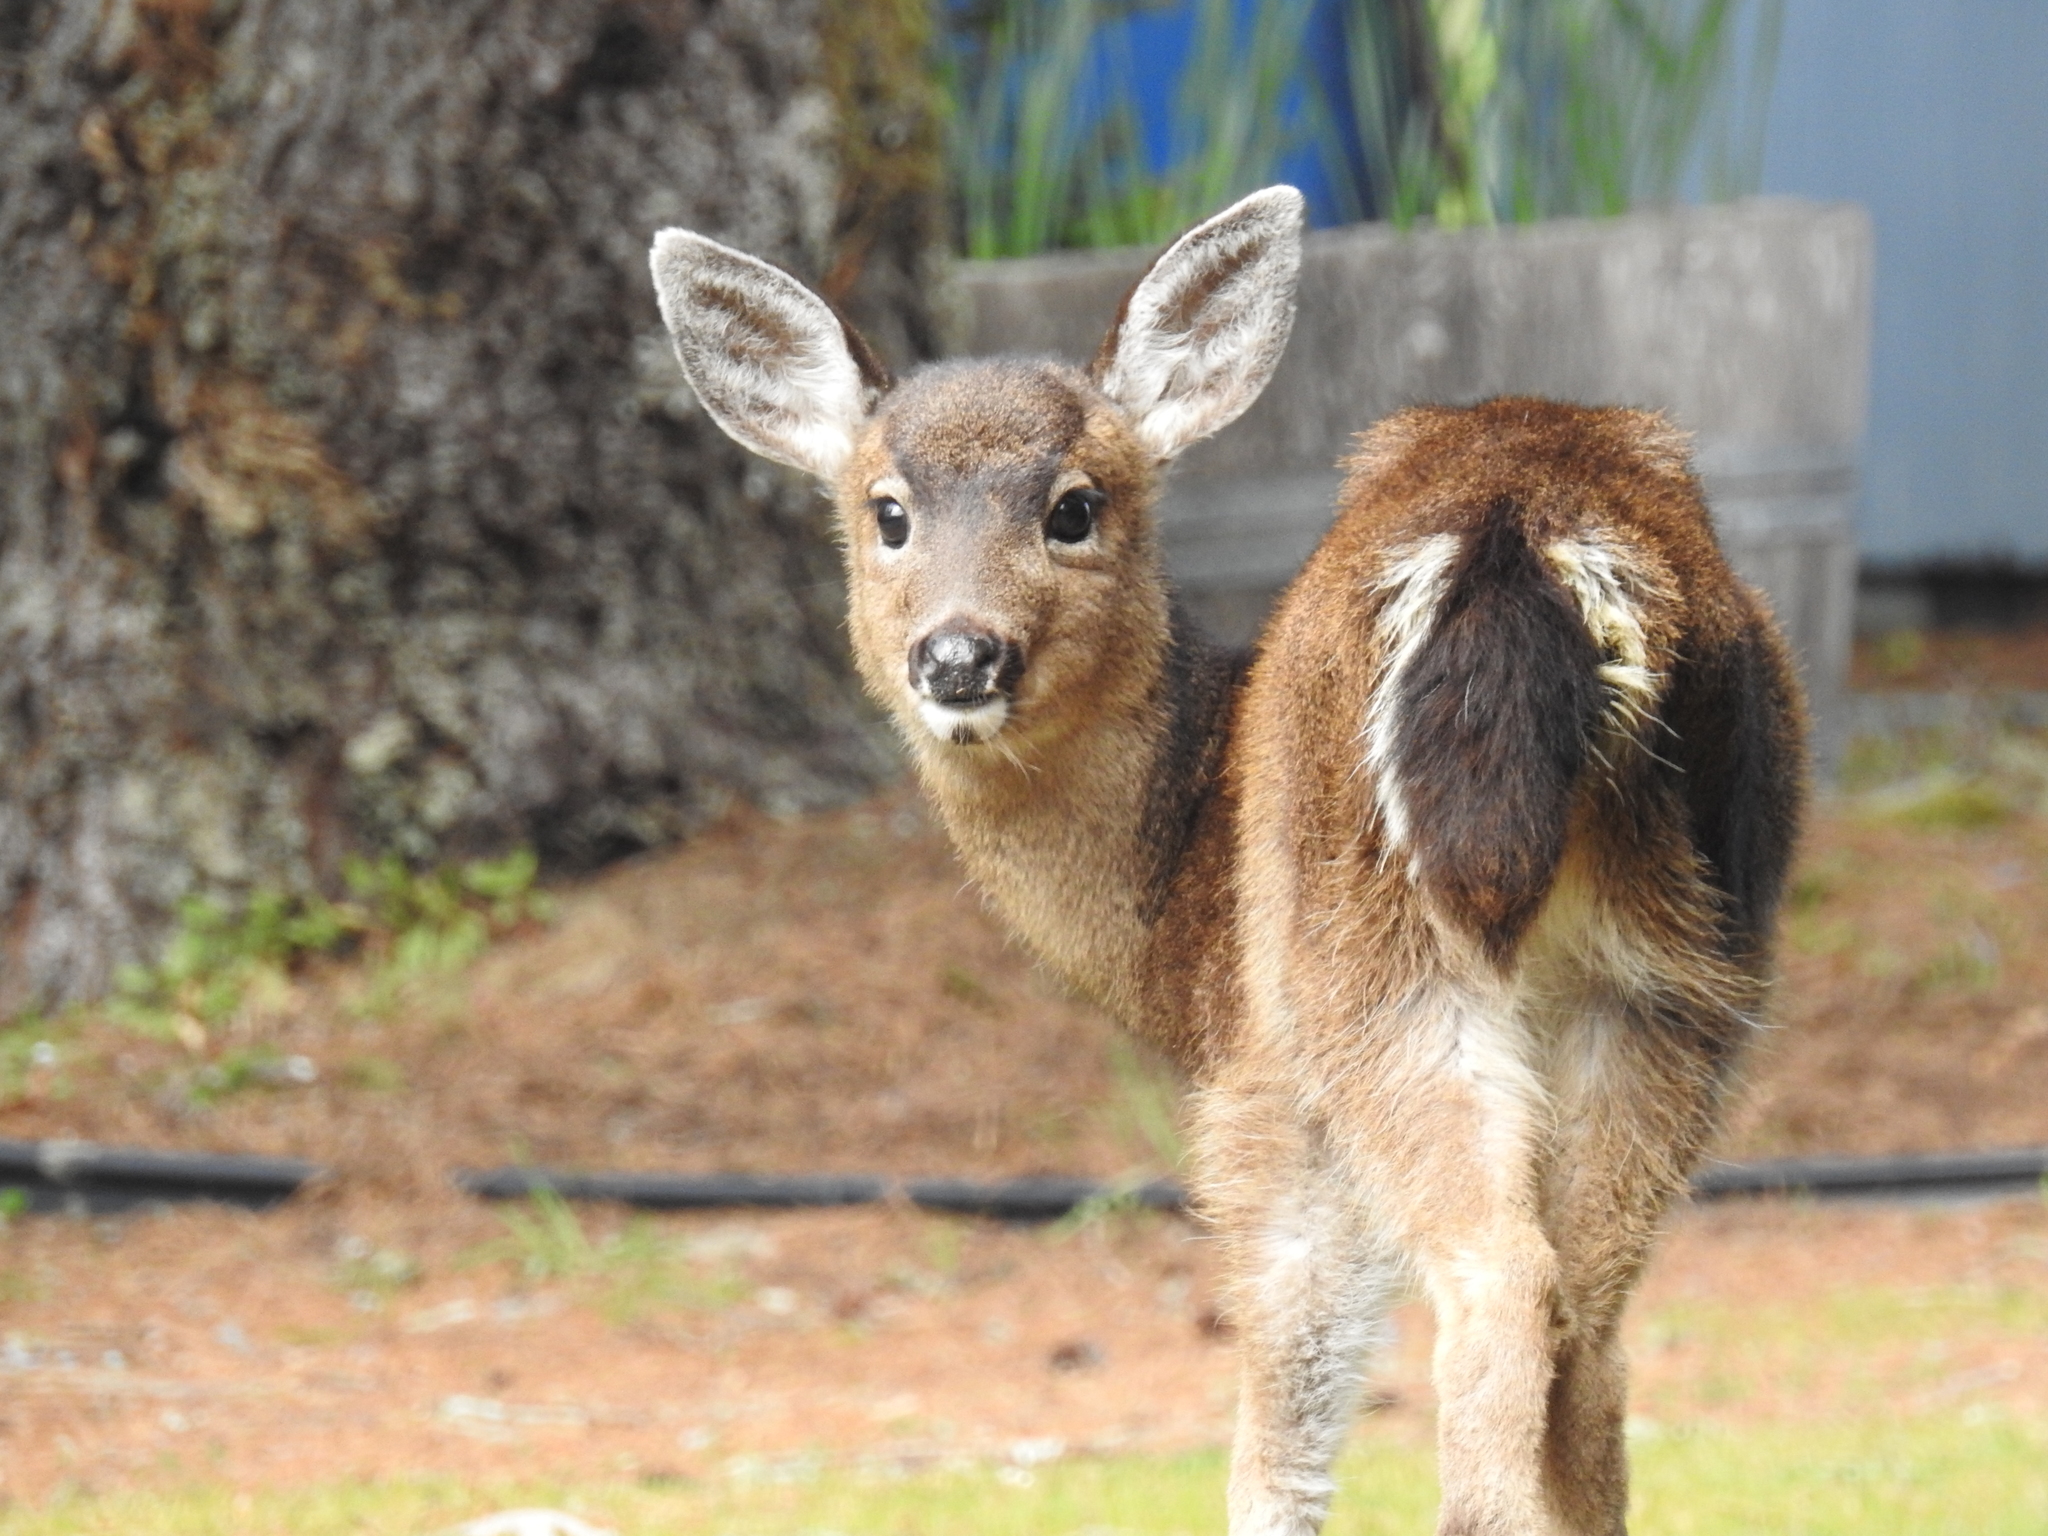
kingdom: Animalia
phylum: Chordata
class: Mammalia
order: Artiodactyla
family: Cervidae
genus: Odocoileus
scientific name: Odocoileus hemionus
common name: Mule deer
